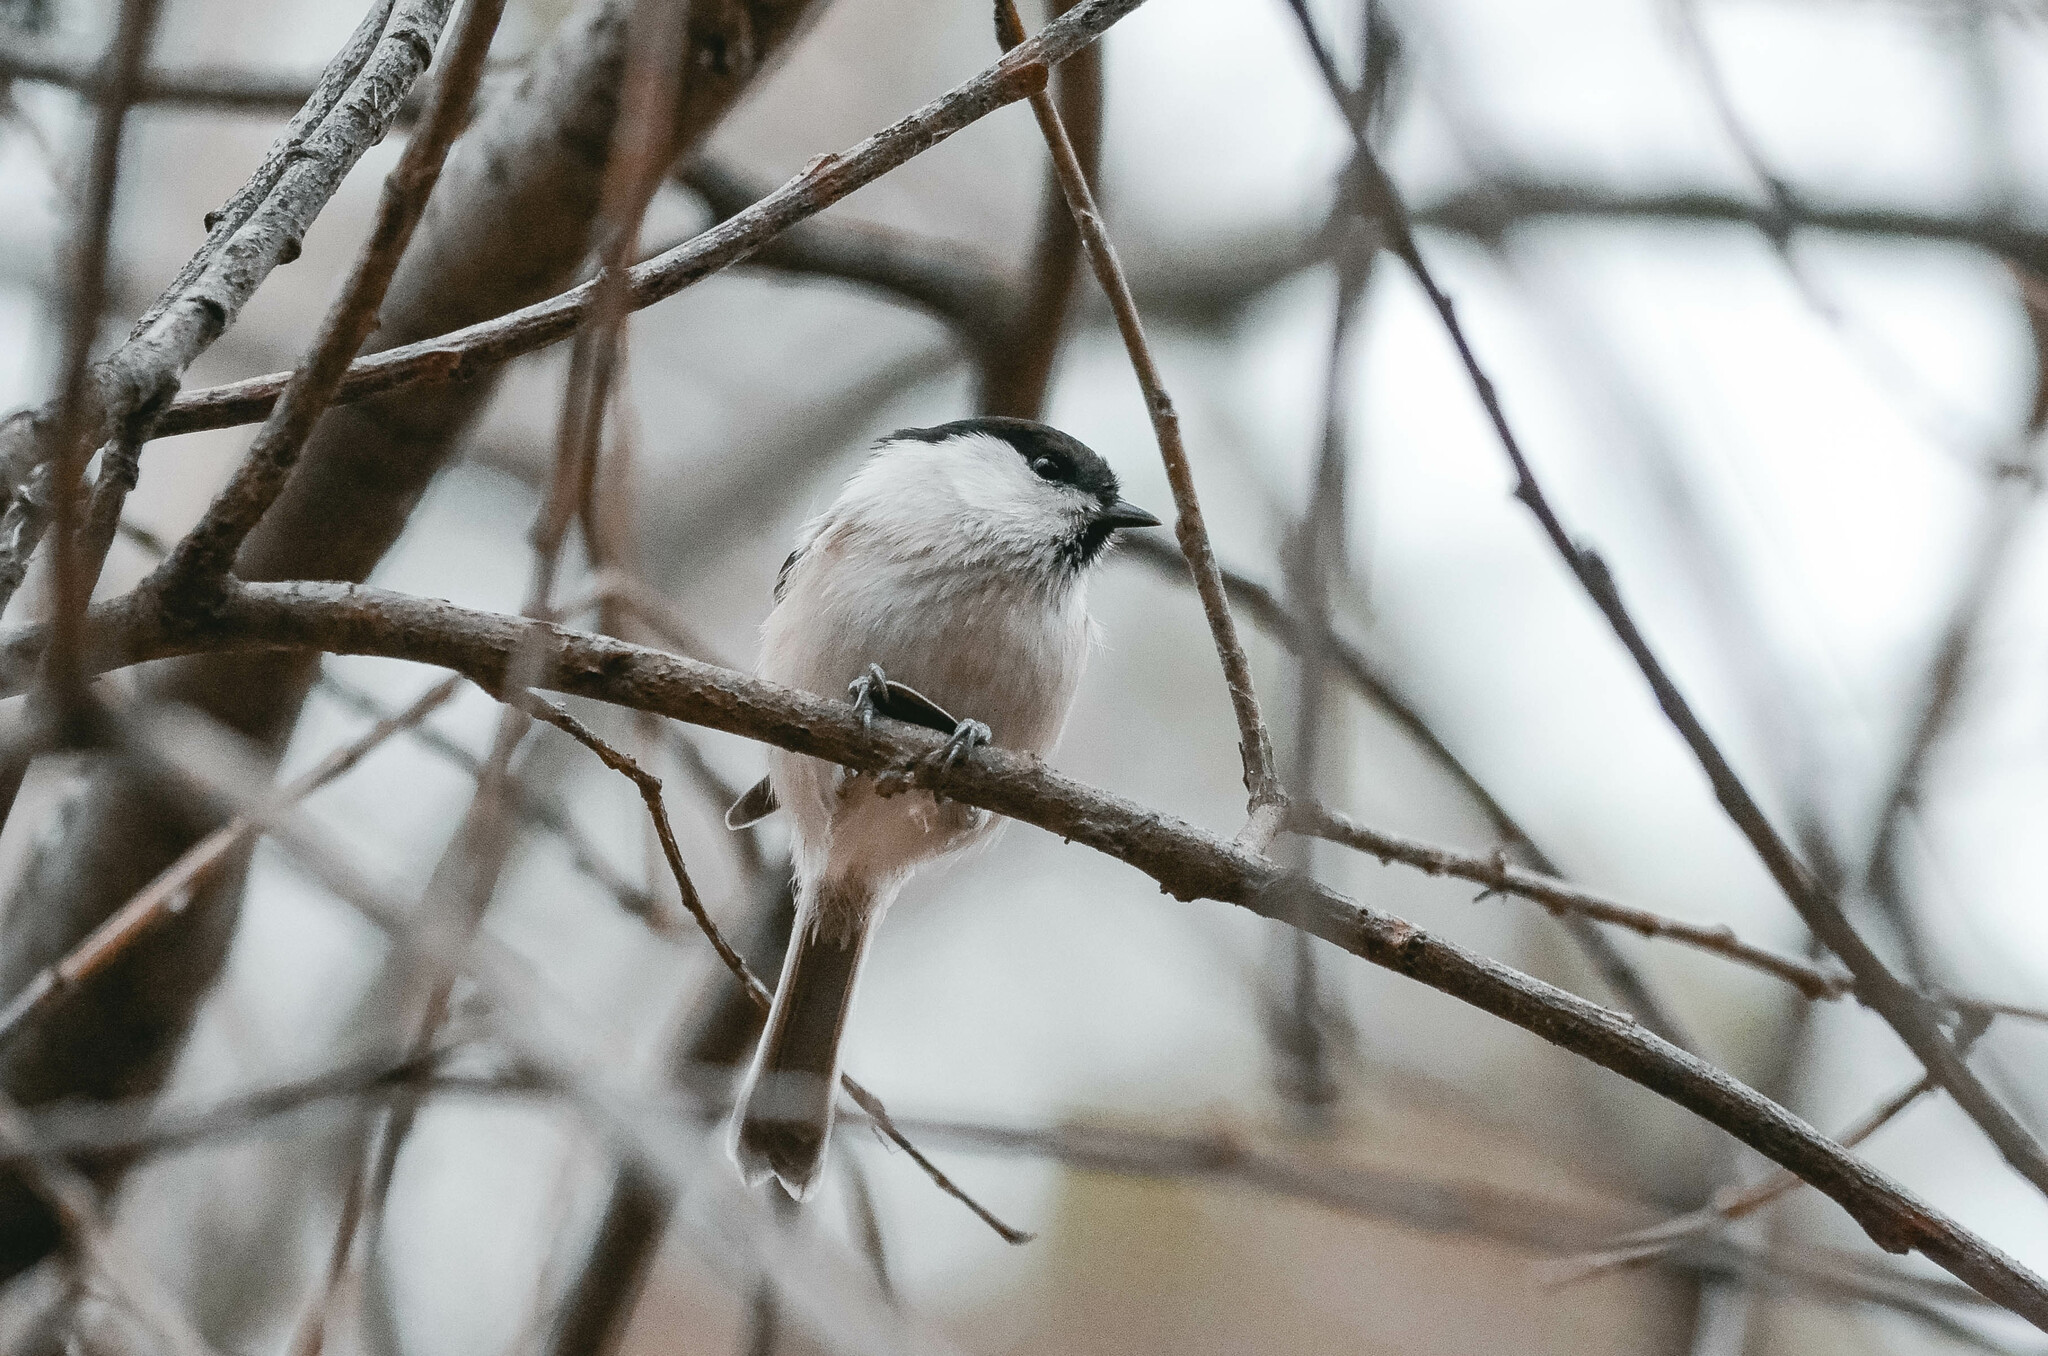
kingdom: Animalia
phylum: Chordata
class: Aves
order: Passeriformes
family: Paridae
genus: Poecile
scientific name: Poecile montanus
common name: Willow tit
